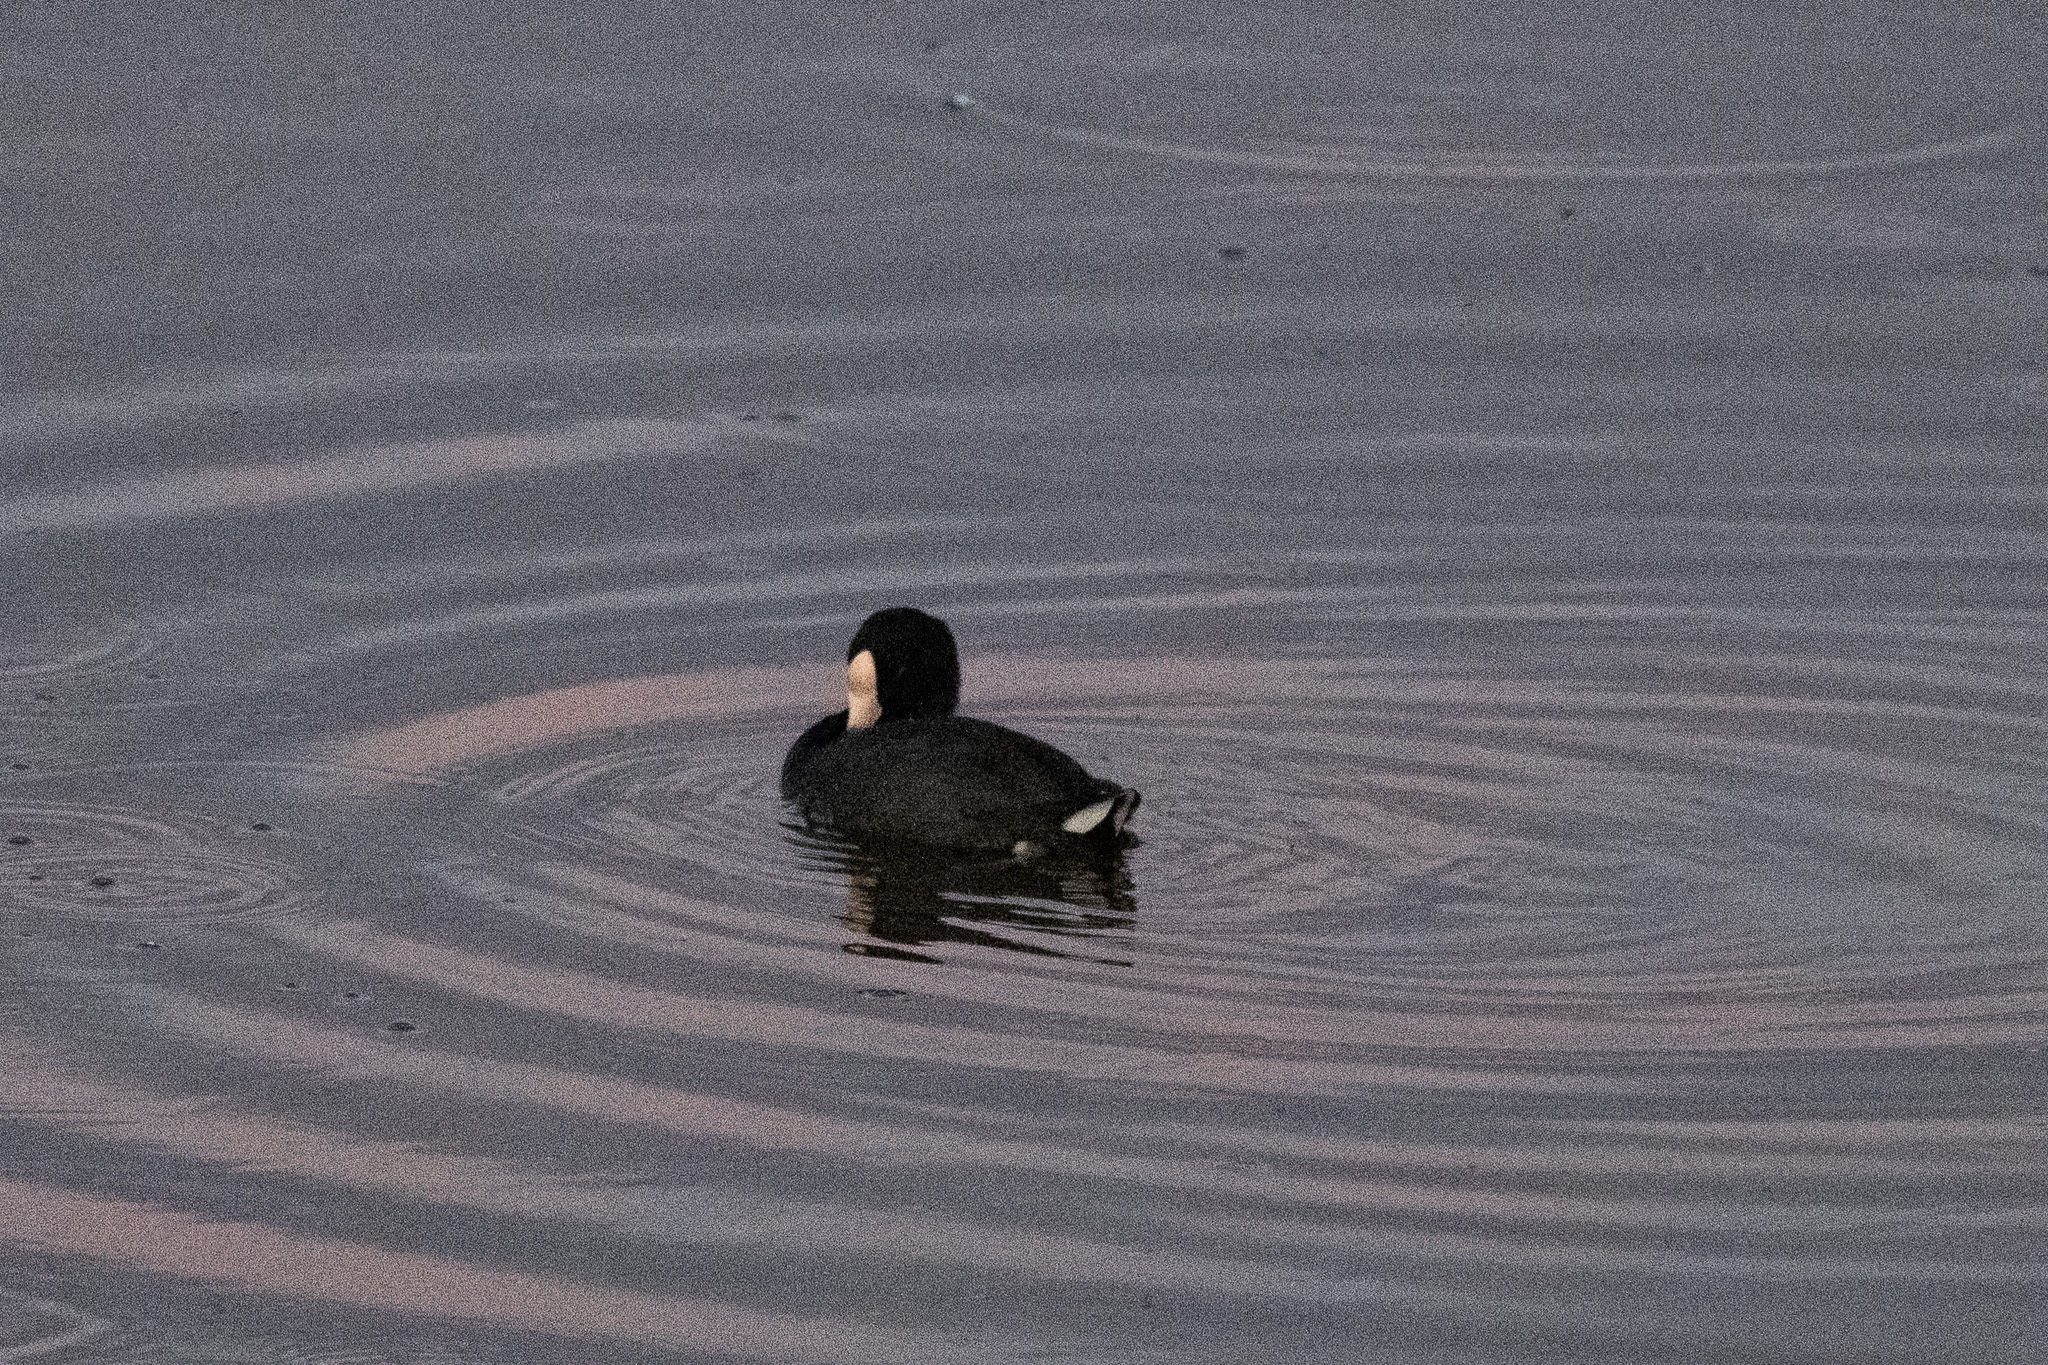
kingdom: Animalia
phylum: Chordata
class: Aves
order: Gruiformes
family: Rallidae
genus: Fulica
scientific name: Fulica alai
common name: Hawaiian coot
